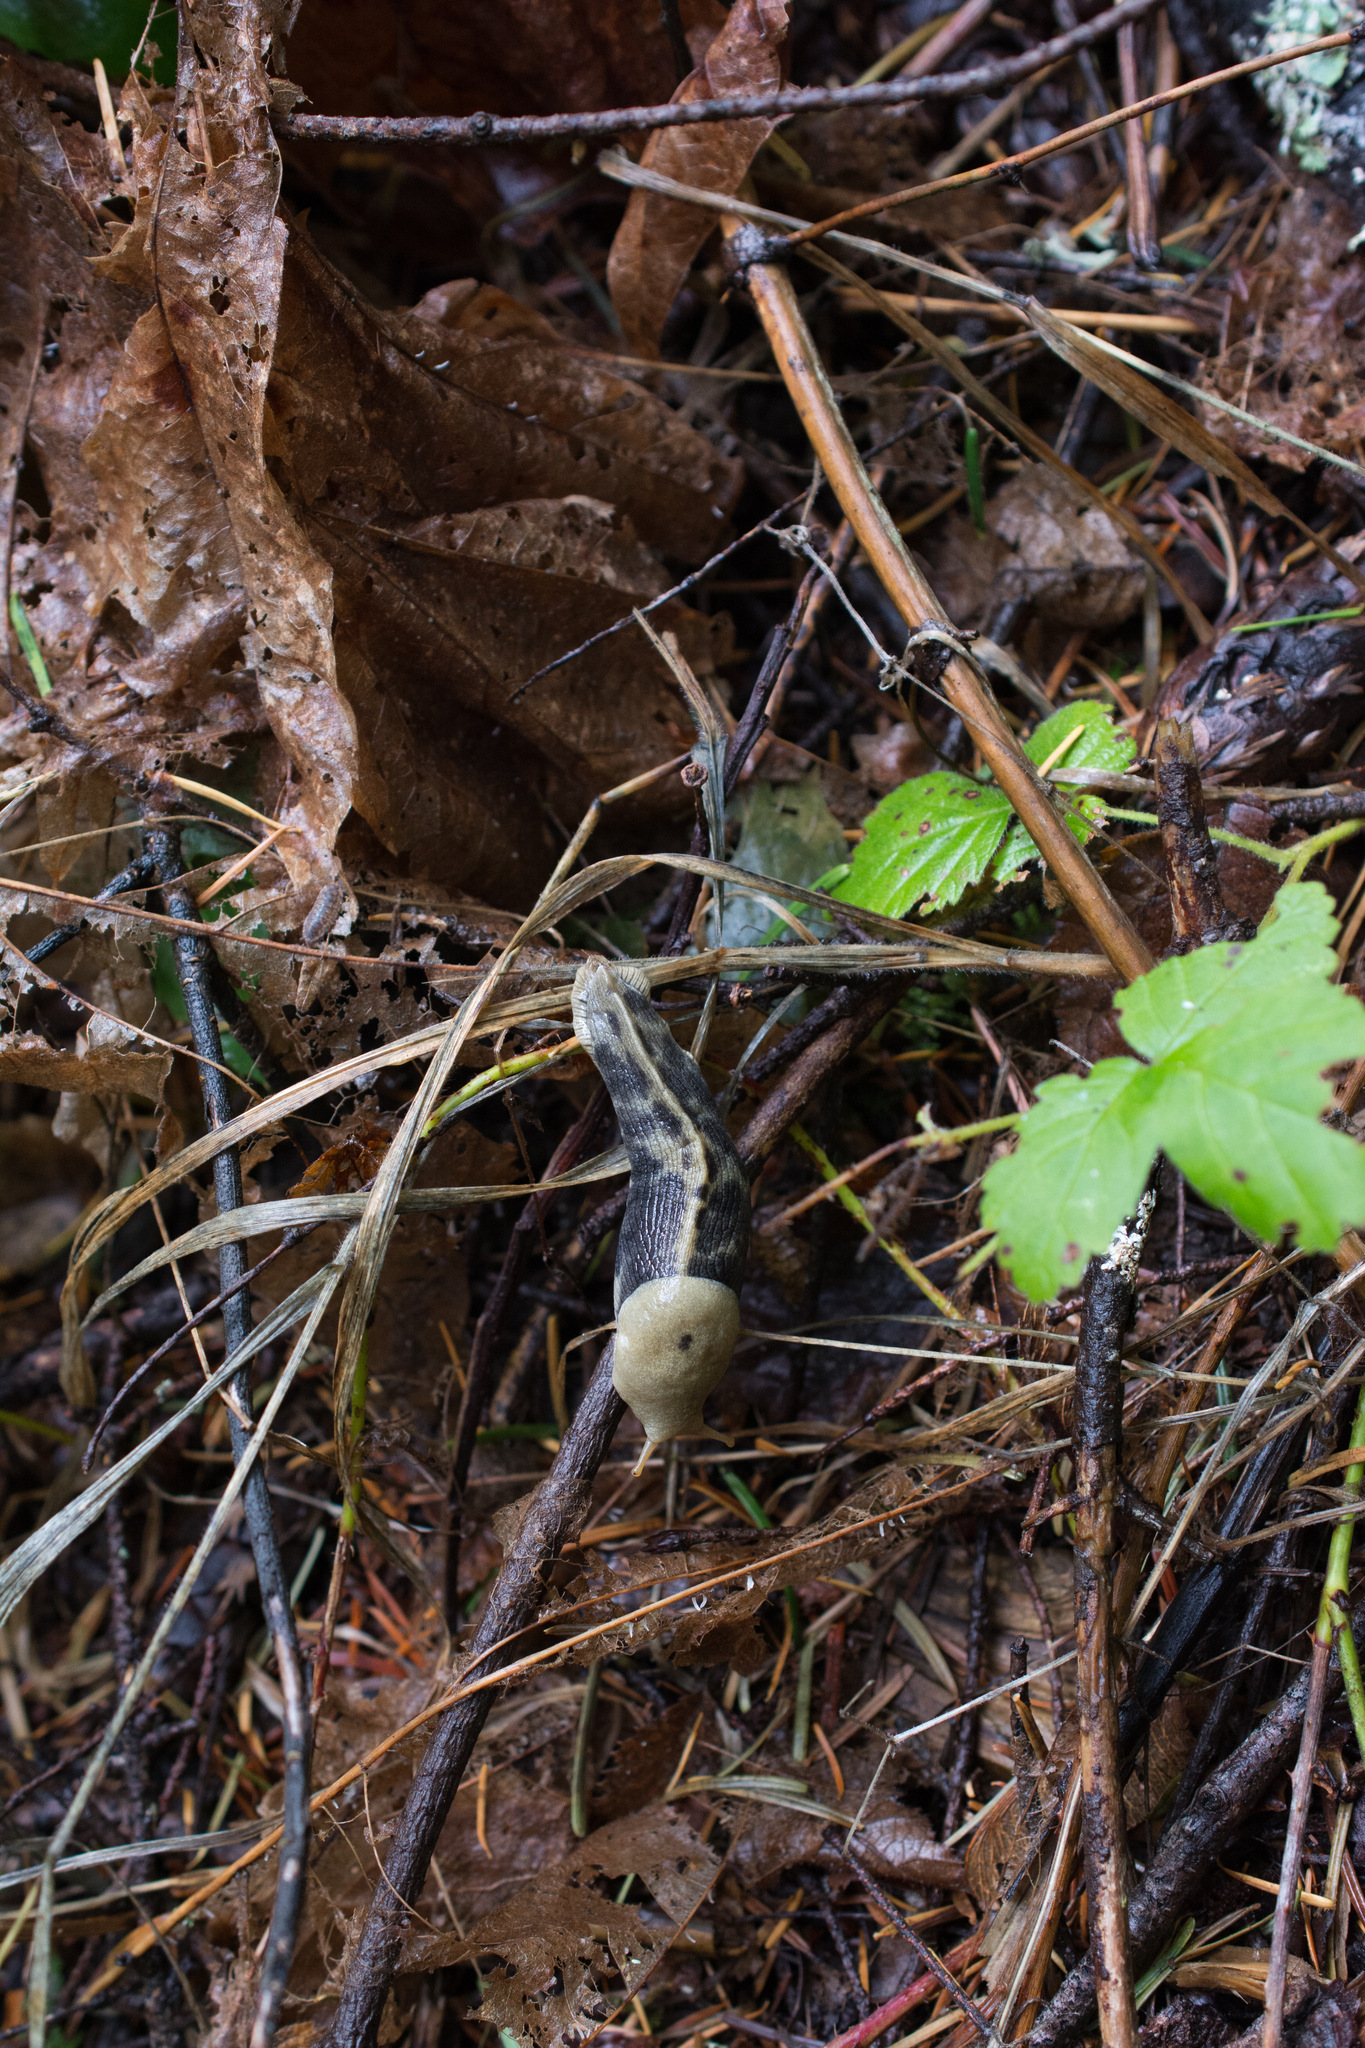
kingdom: Animalia
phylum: Mollusca
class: Gastropoda
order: Stylommatophora
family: Ariolimacidae
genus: Ariolimax
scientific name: Ariolimax columbianus
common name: Pacific banana slug
